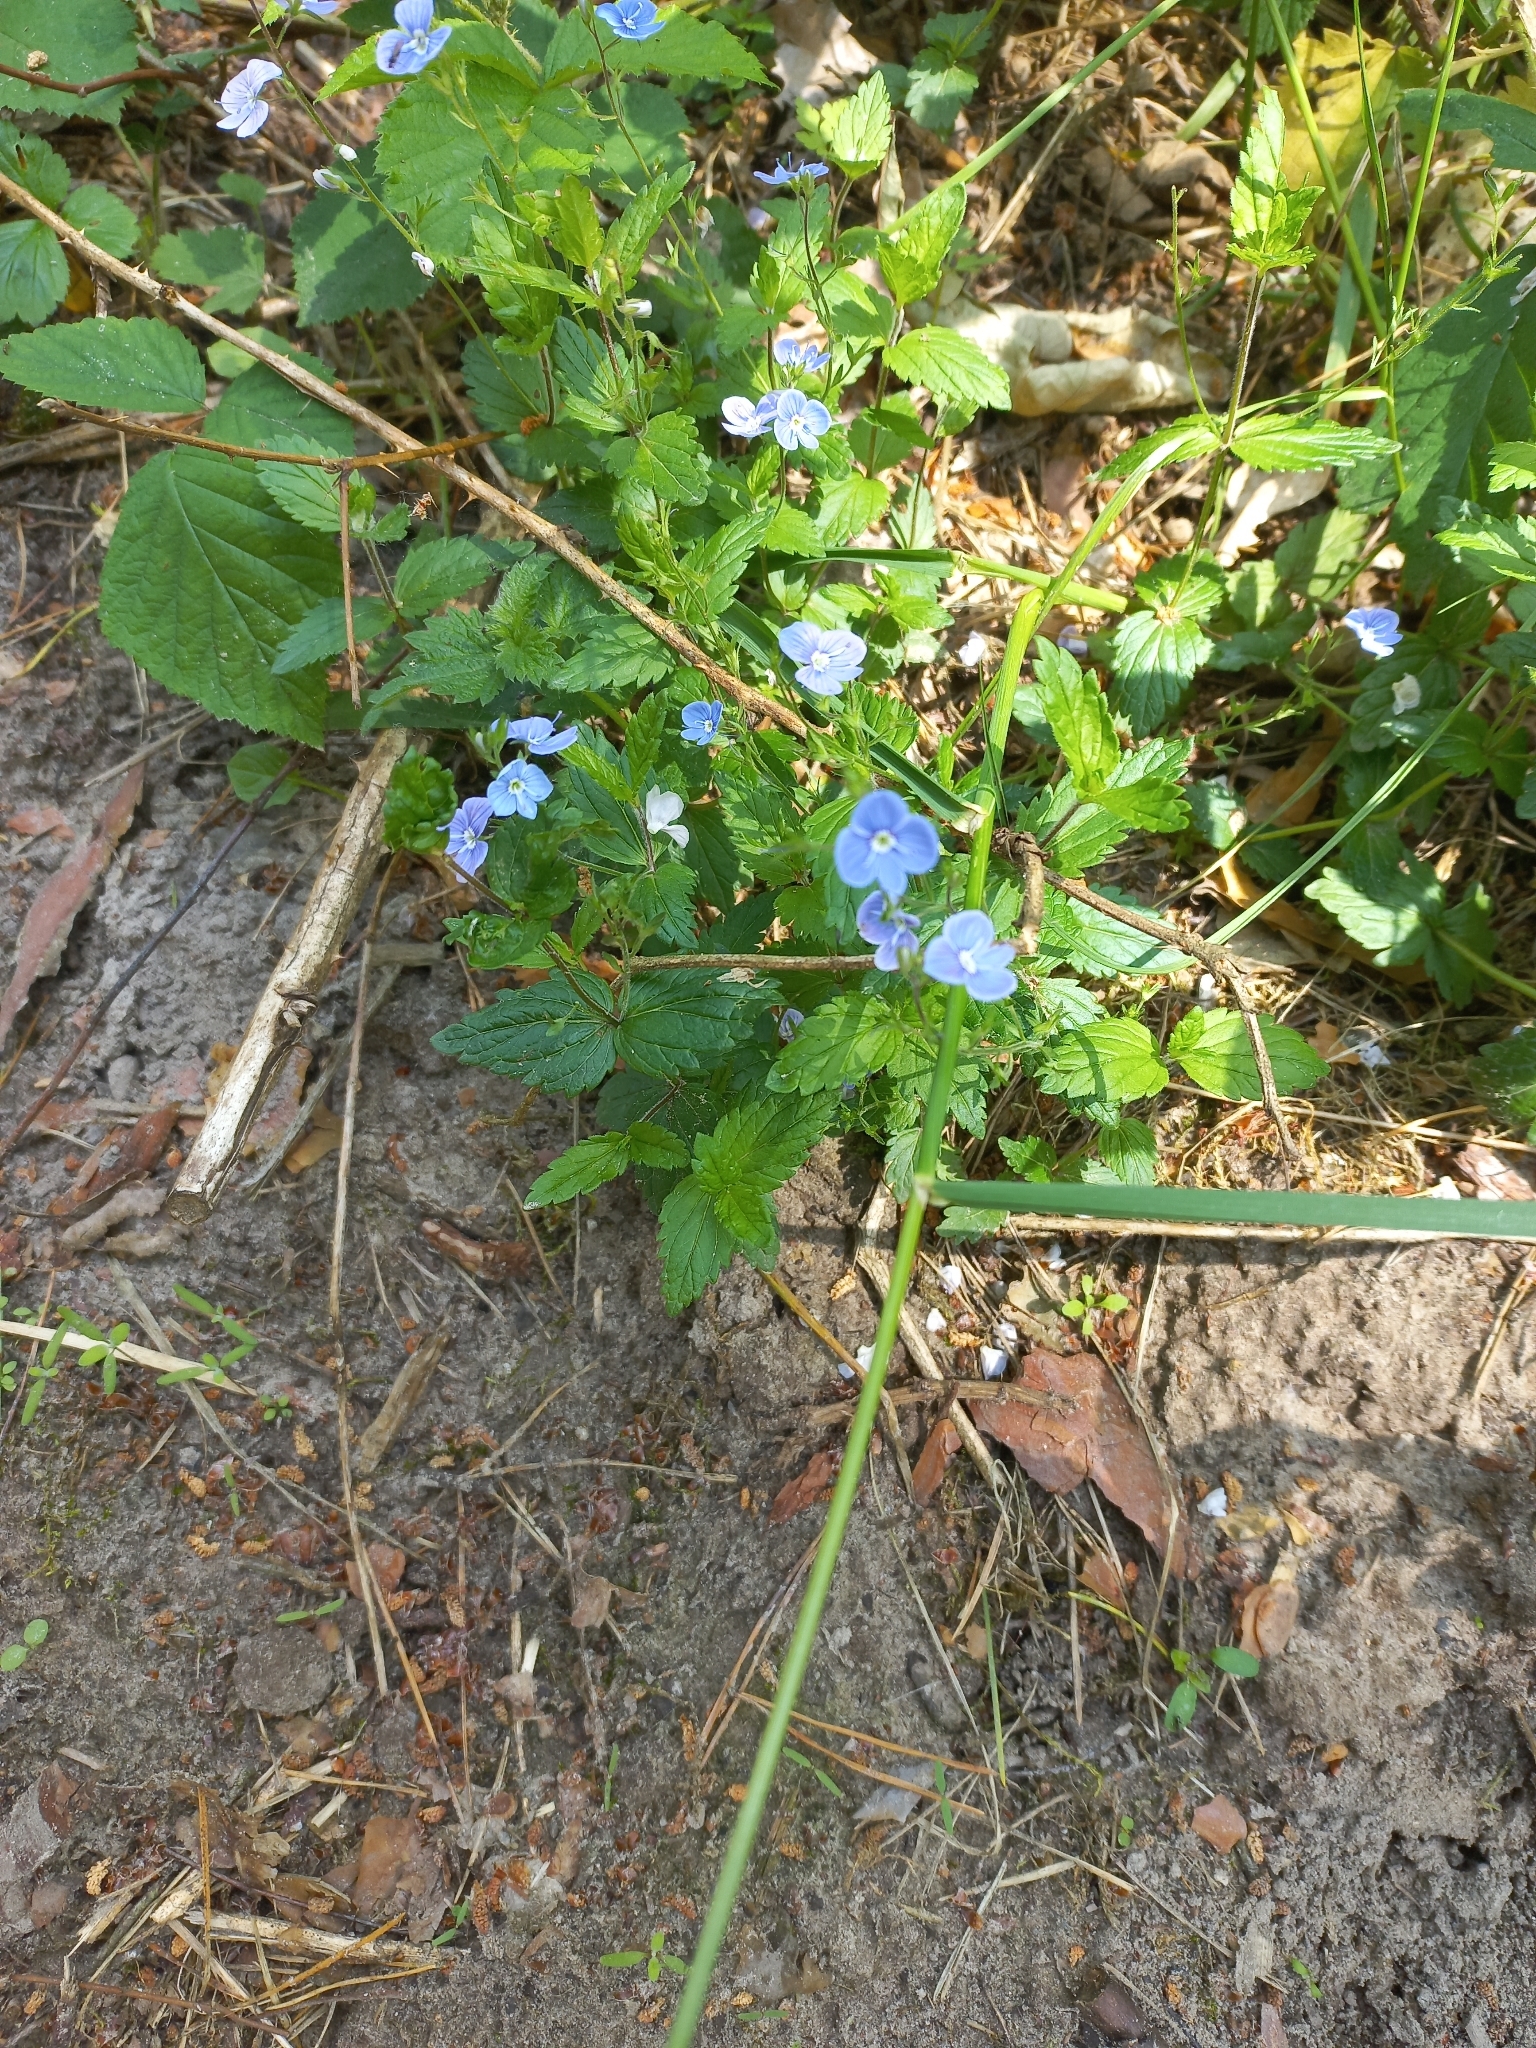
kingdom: Plantae
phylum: Tracheophyta
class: Magnoliopsida
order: Lamiales
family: Plantaginaceae
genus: Veronica
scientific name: Veronica chamaedrys
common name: Germander speedwell
